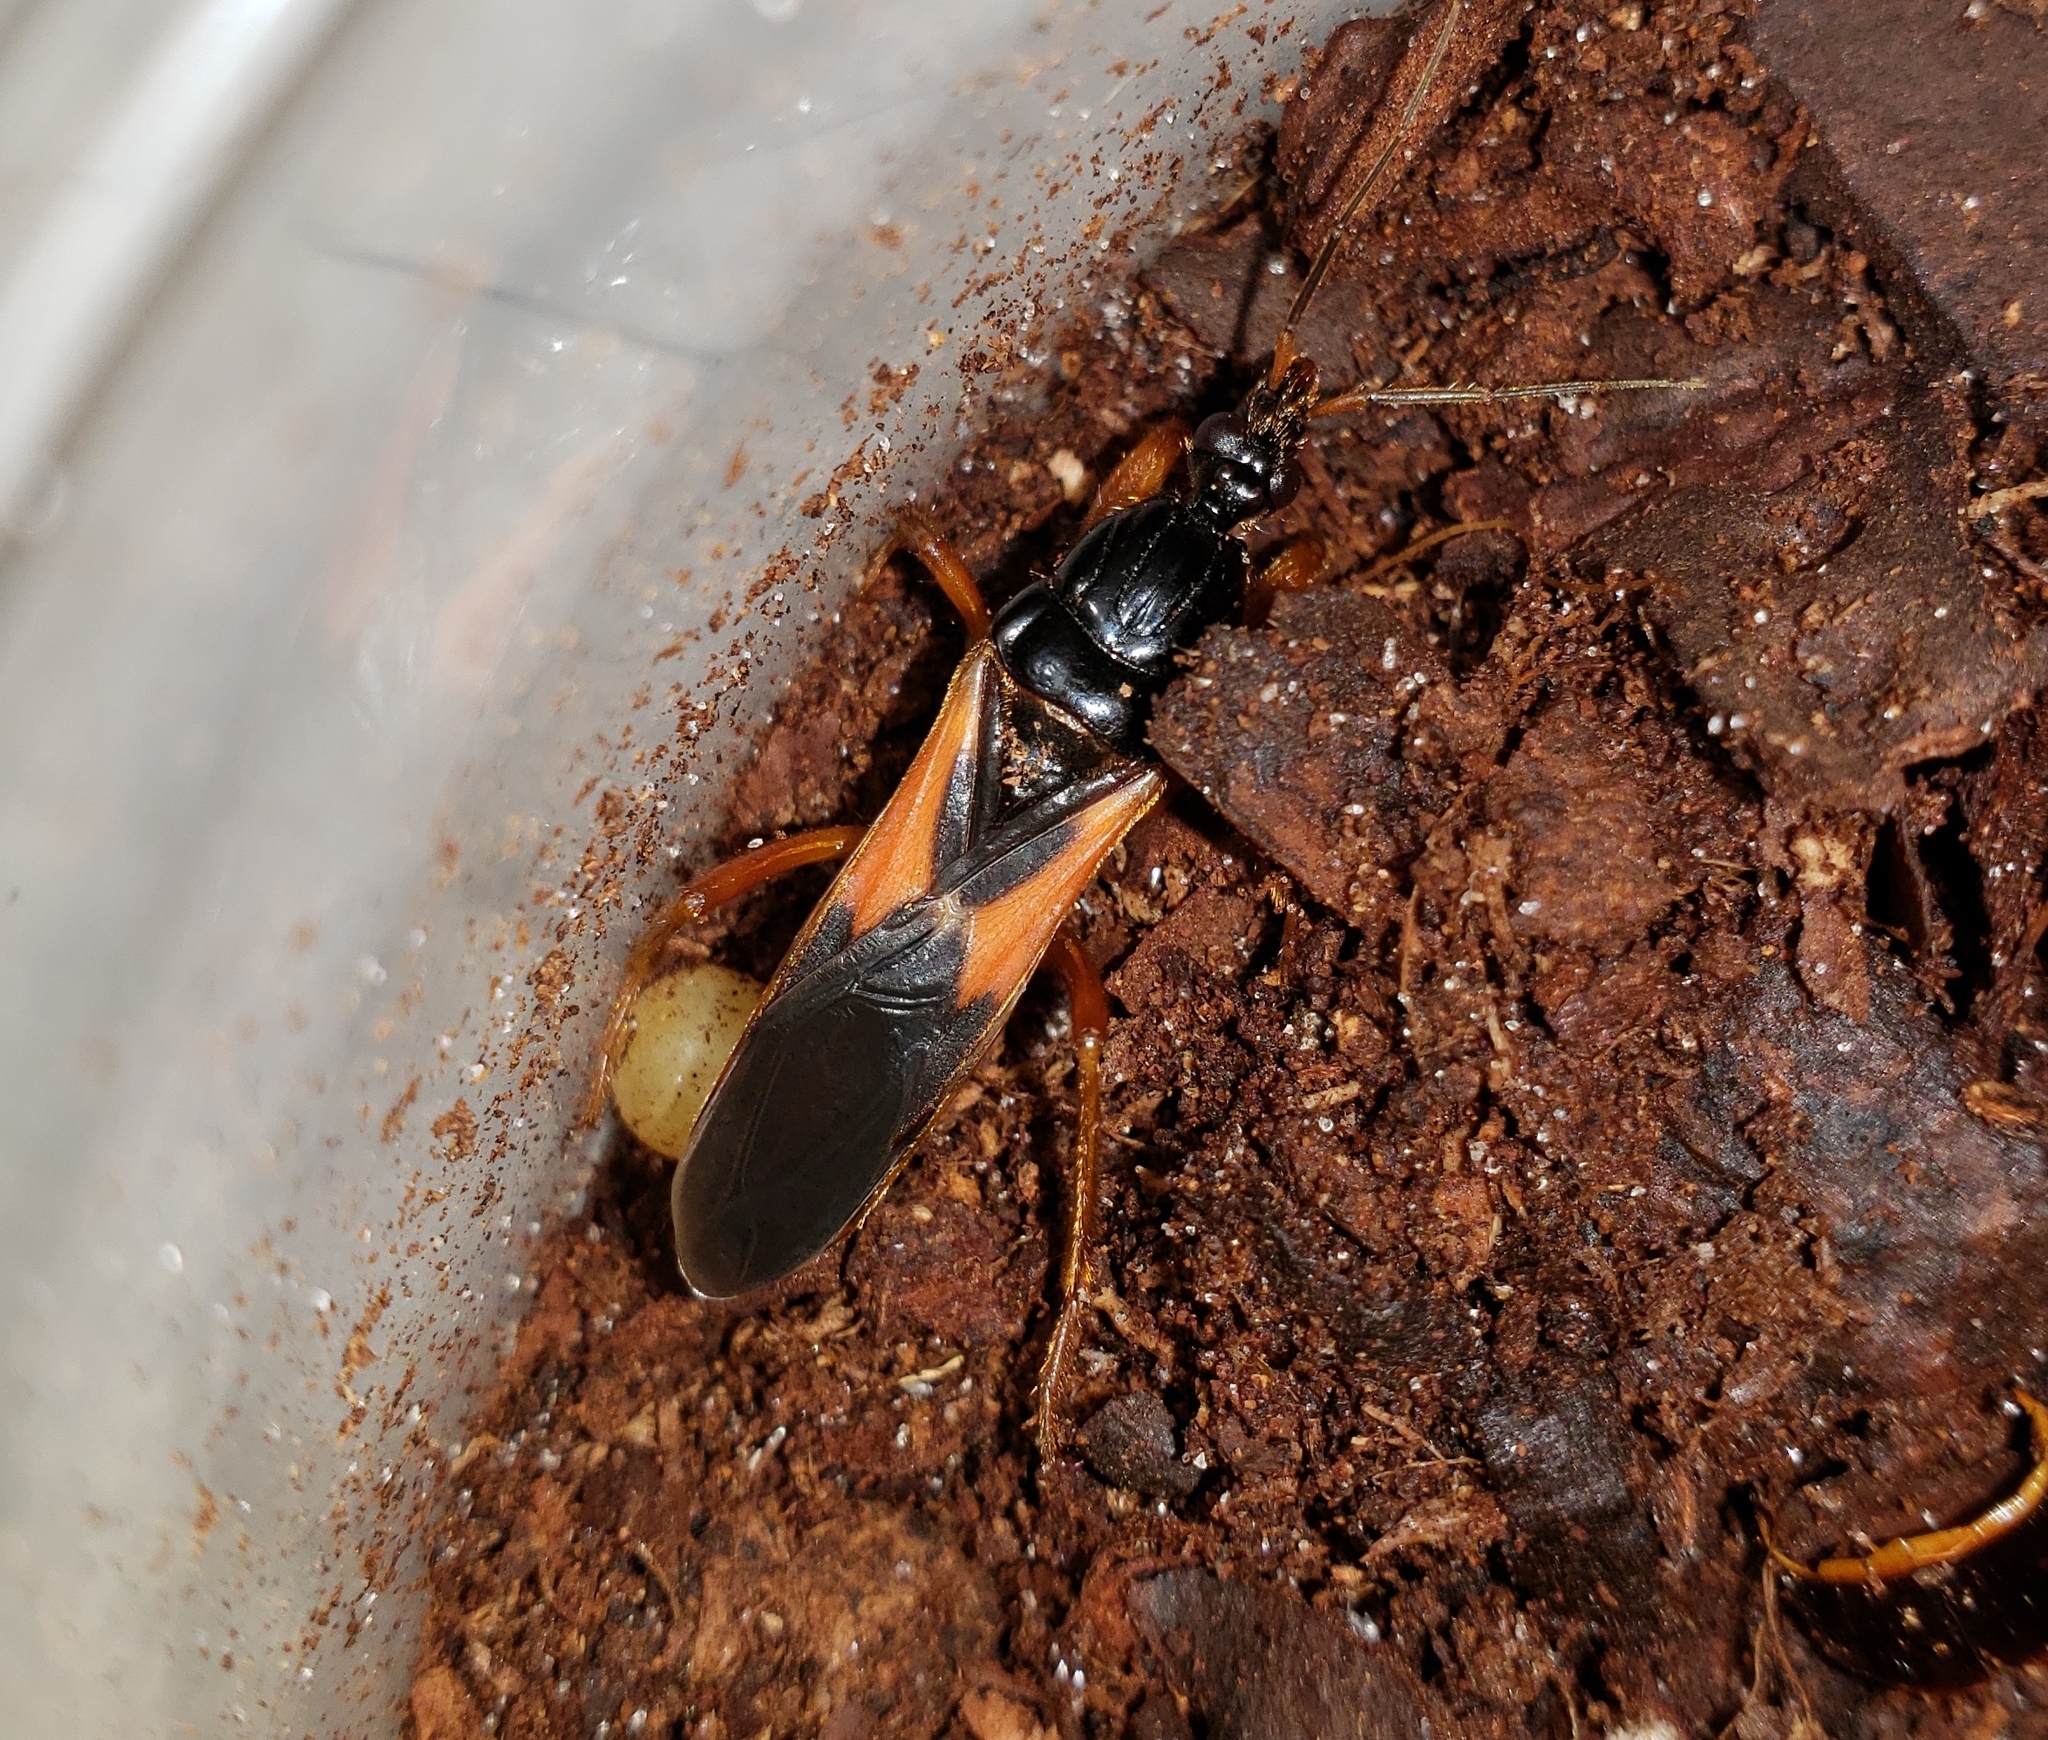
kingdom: Animalia
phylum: Arthropoda
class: Insecta
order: Hemiptera
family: Reduviidae
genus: Sirthenea
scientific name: Sirthenea stria
